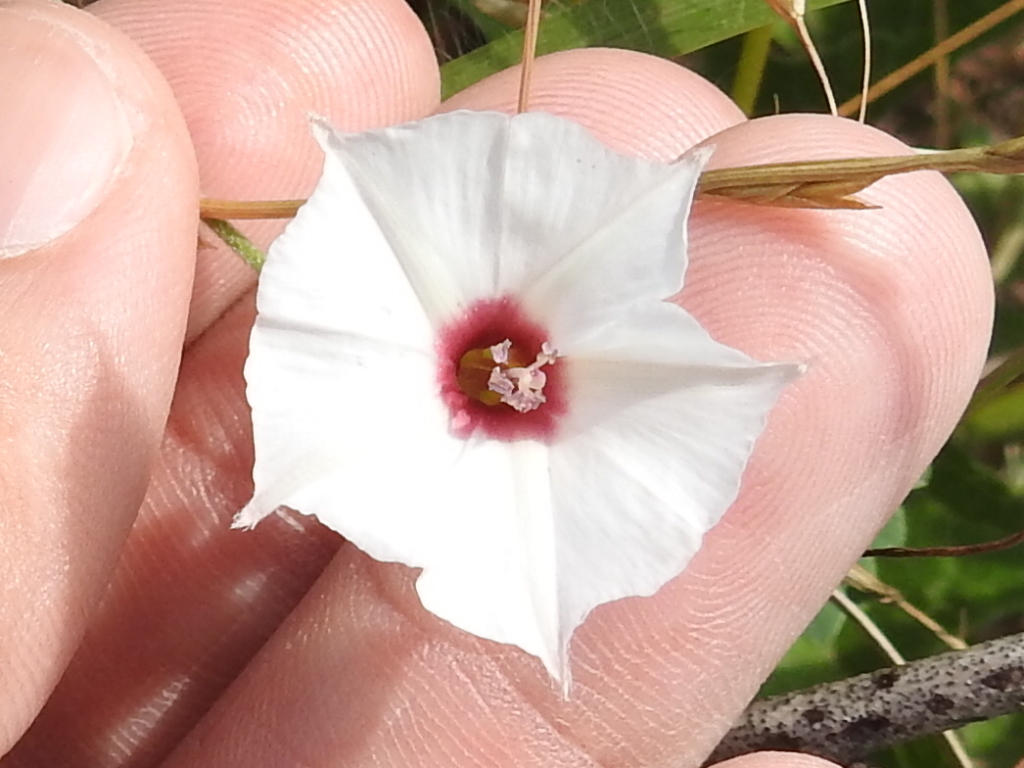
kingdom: Plantae
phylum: Tracheophyta
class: Magnoliopsida
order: Solanales
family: Convolvulaceae
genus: Convolvulus
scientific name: Convolvulus equitans
